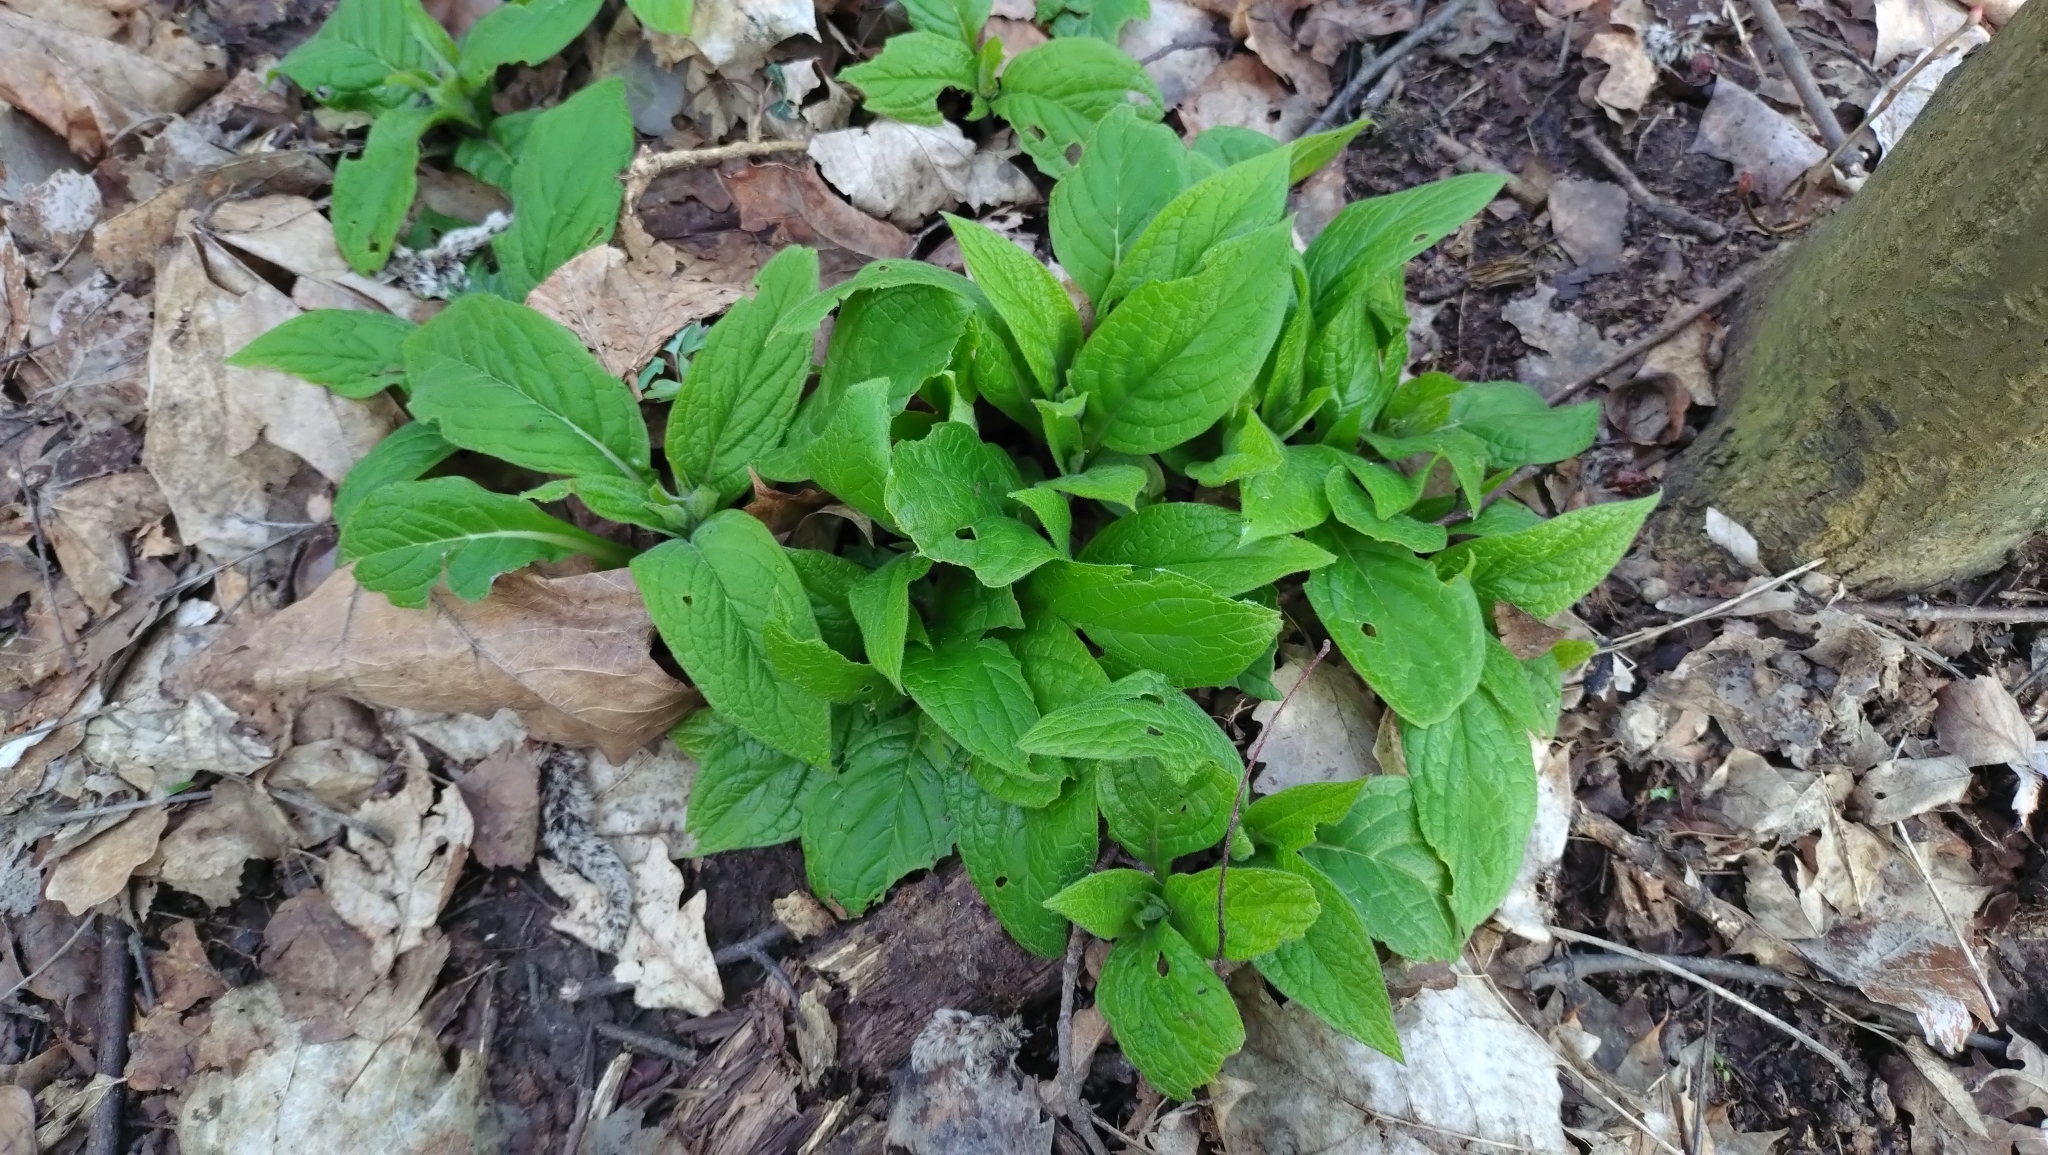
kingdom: Plantae
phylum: Tracheophyta
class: Magnoliopsida
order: Boraginales
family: Boraginaceae
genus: Symphytum
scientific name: Symphytum tuberosum
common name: Tuberous comfrey
